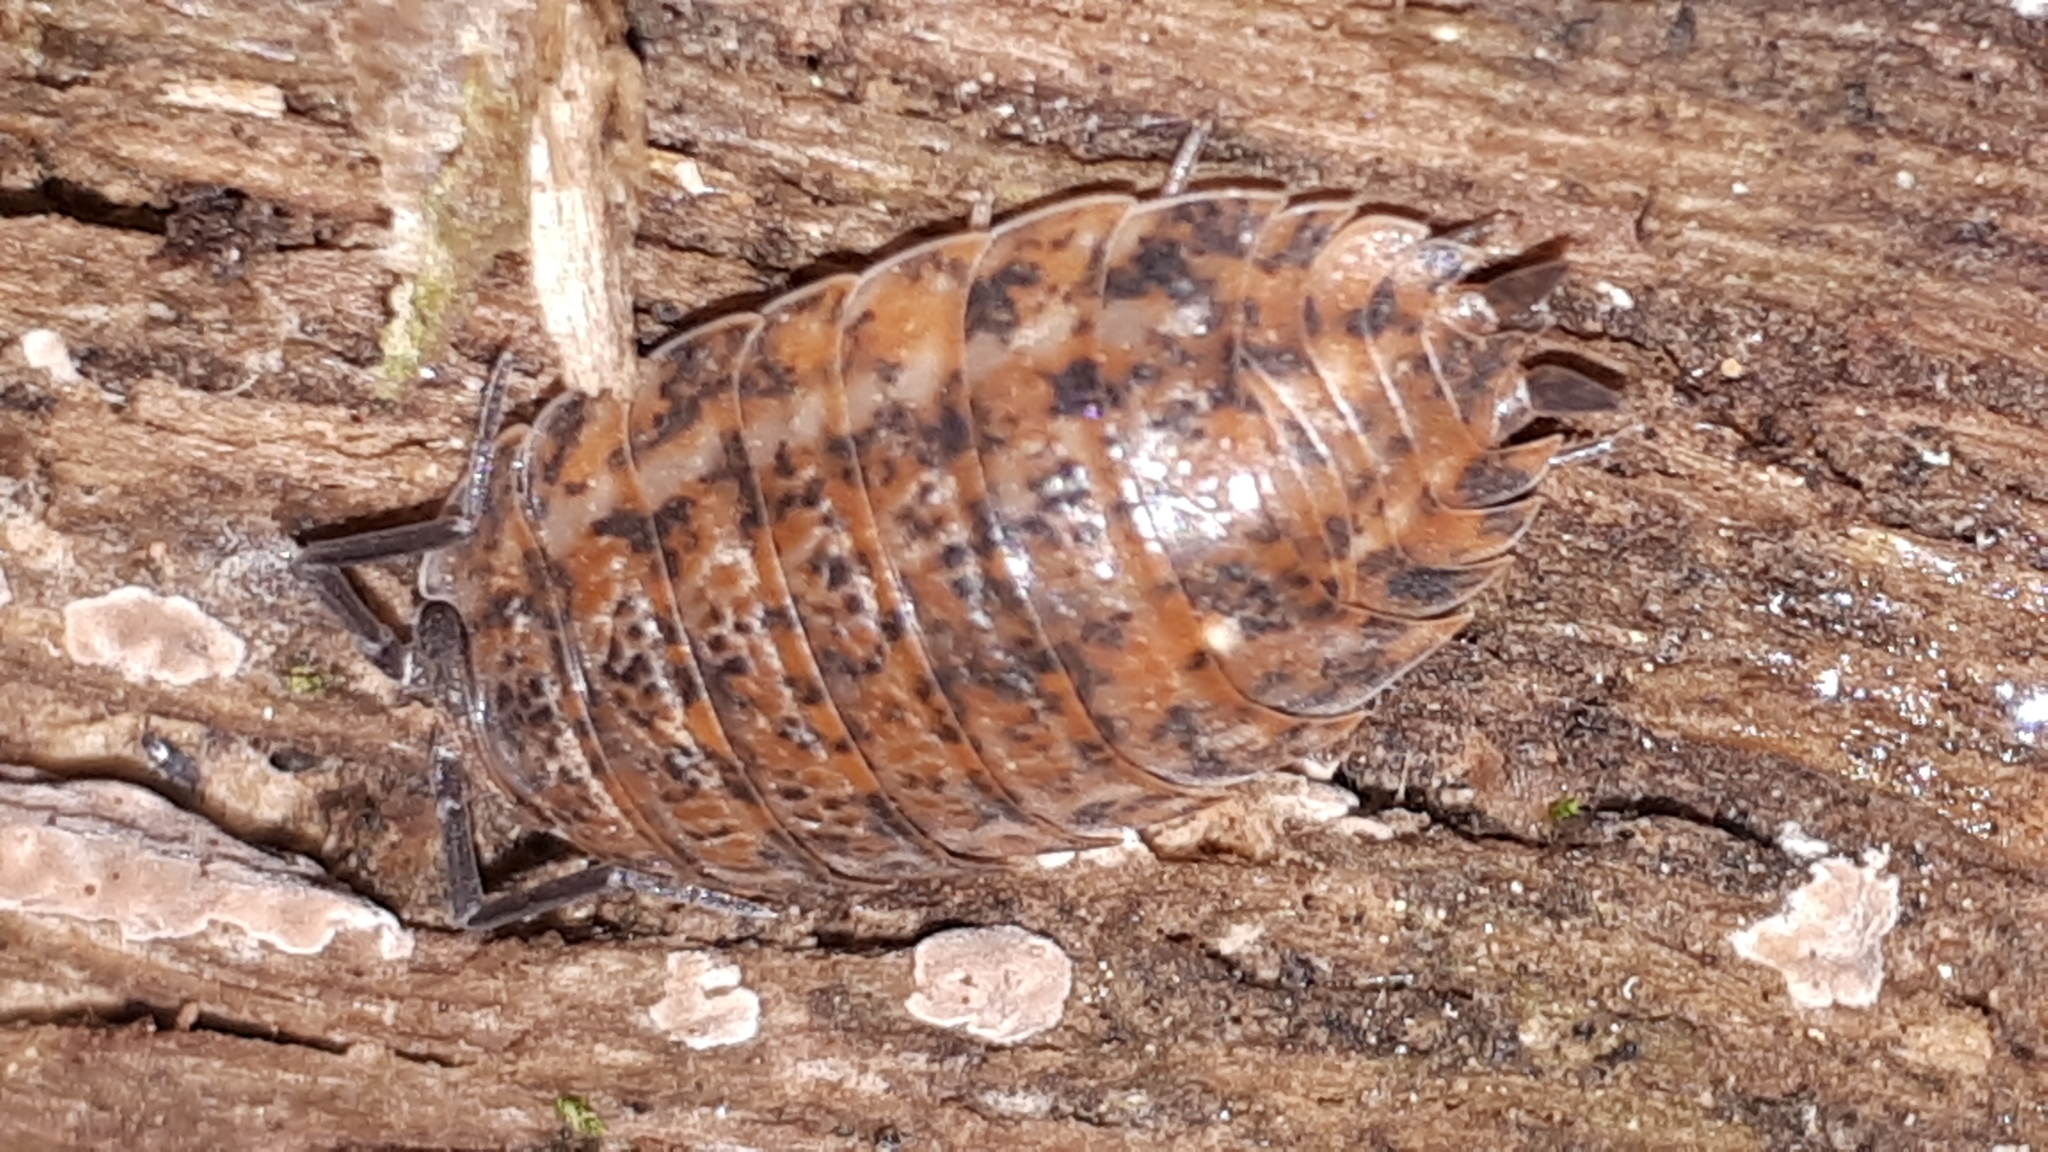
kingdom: Animalia
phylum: Arthropoda
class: Malacostraca
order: Isopoda
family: Trachelipodidae
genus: Trachelipus
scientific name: Trachelipus rathkii
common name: Isopod
